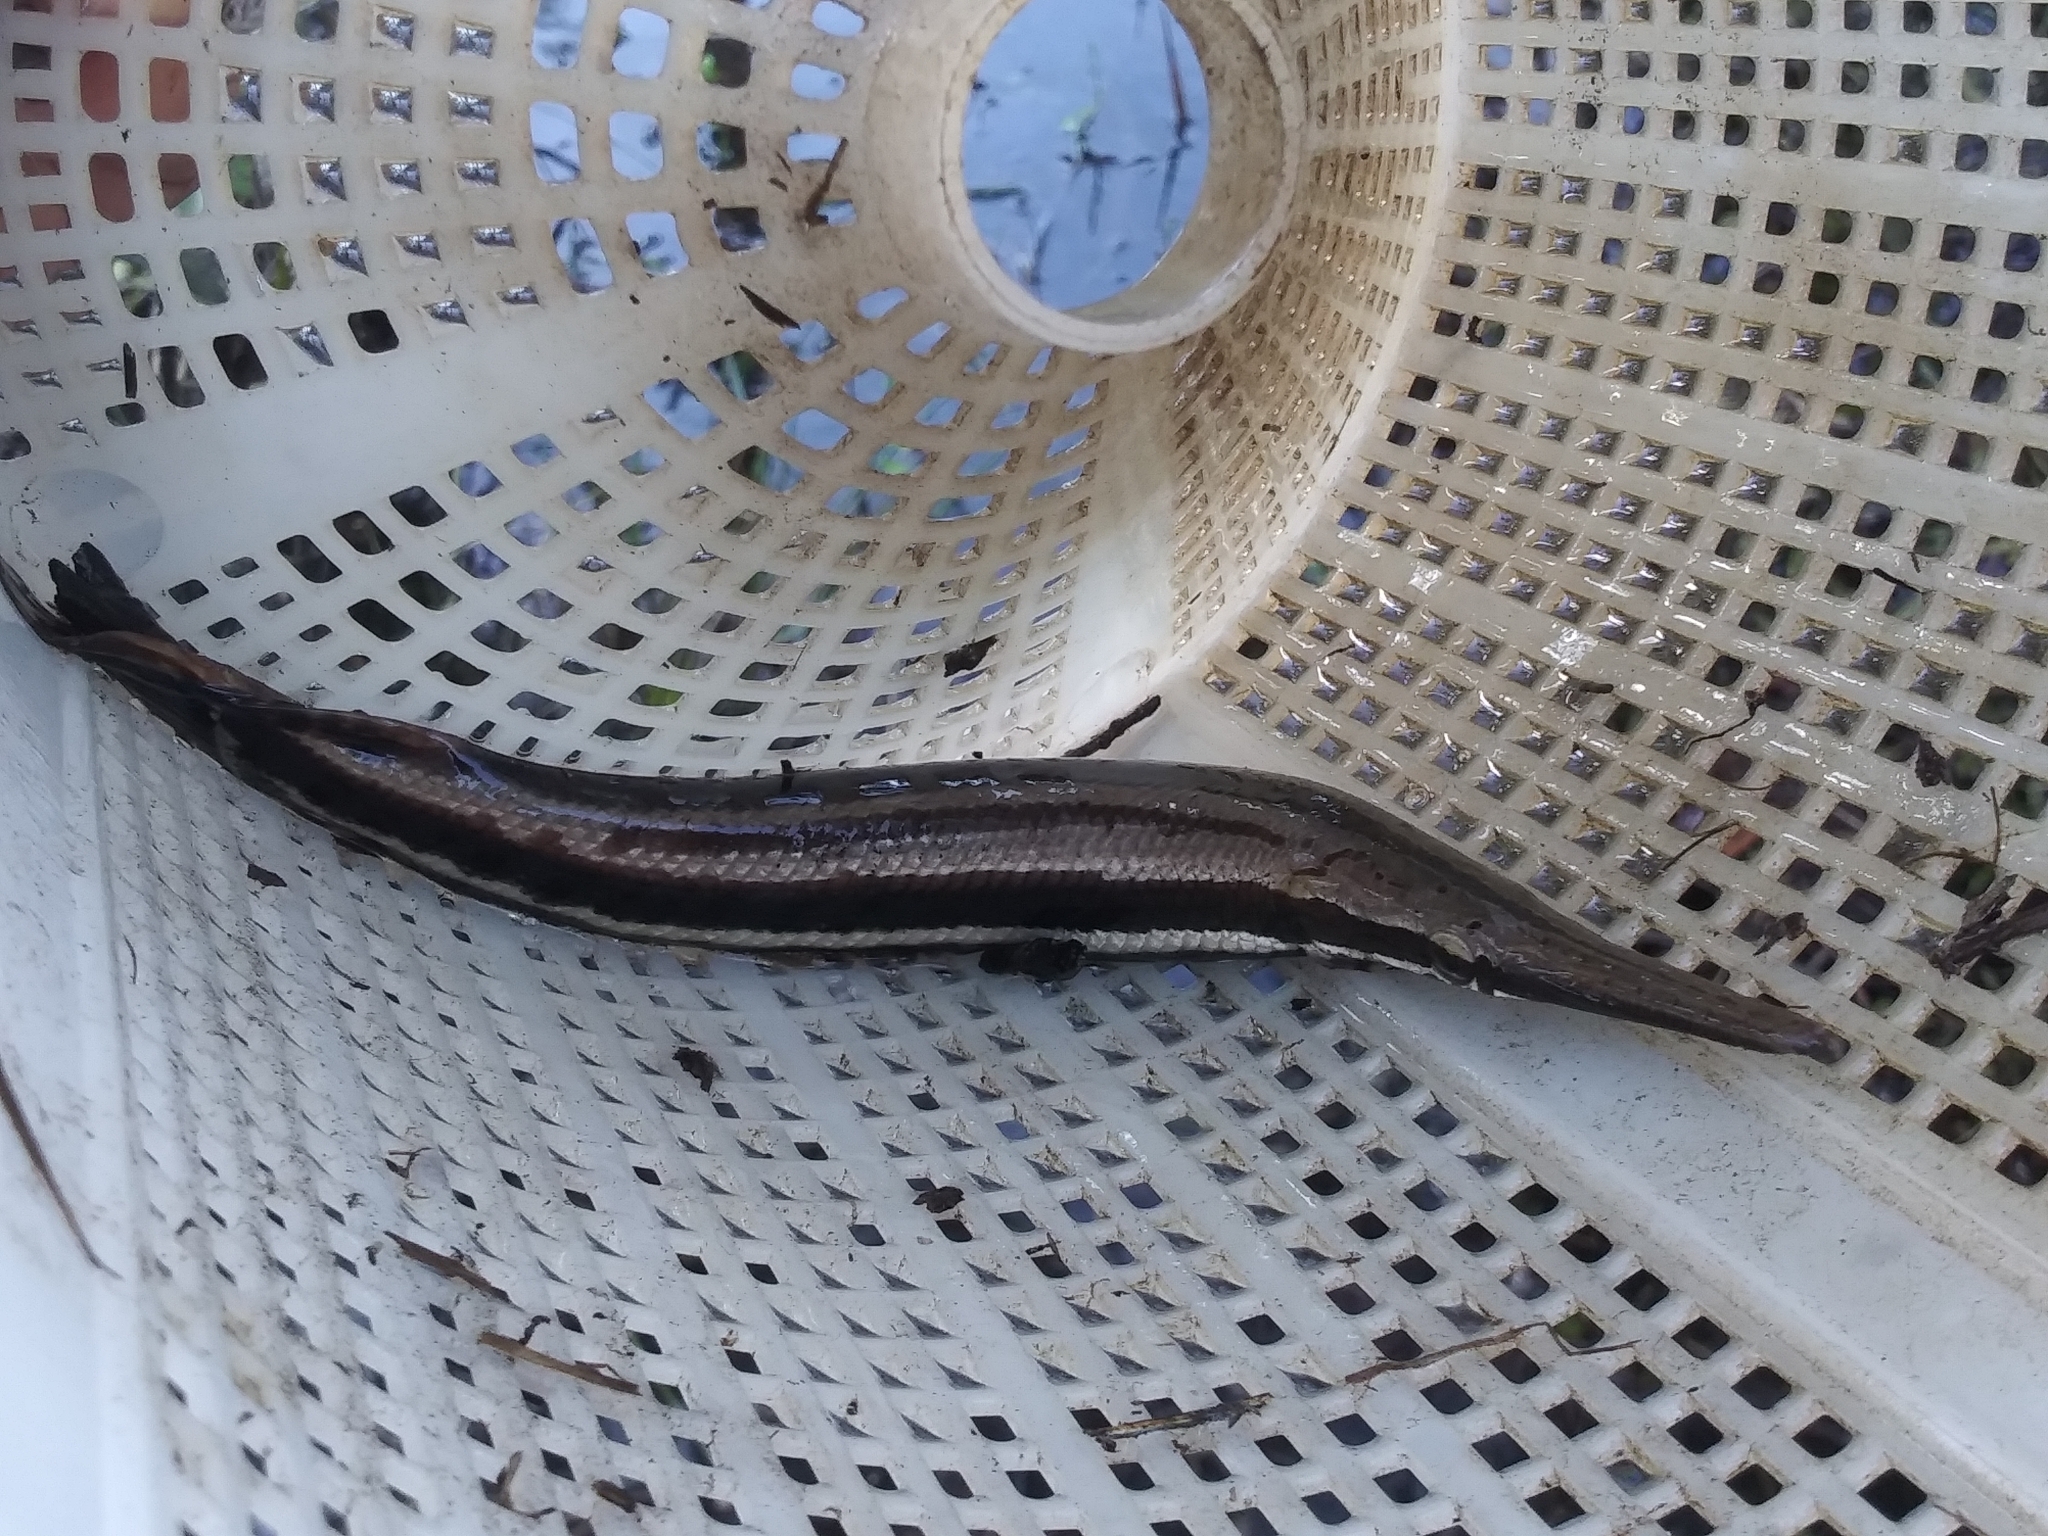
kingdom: Animalia
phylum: Chordata
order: Lepisosteiformes
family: Lepisosteidae
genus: Lepisosteus
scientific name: Lepisosteus platyrhincus
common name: Florida gar
